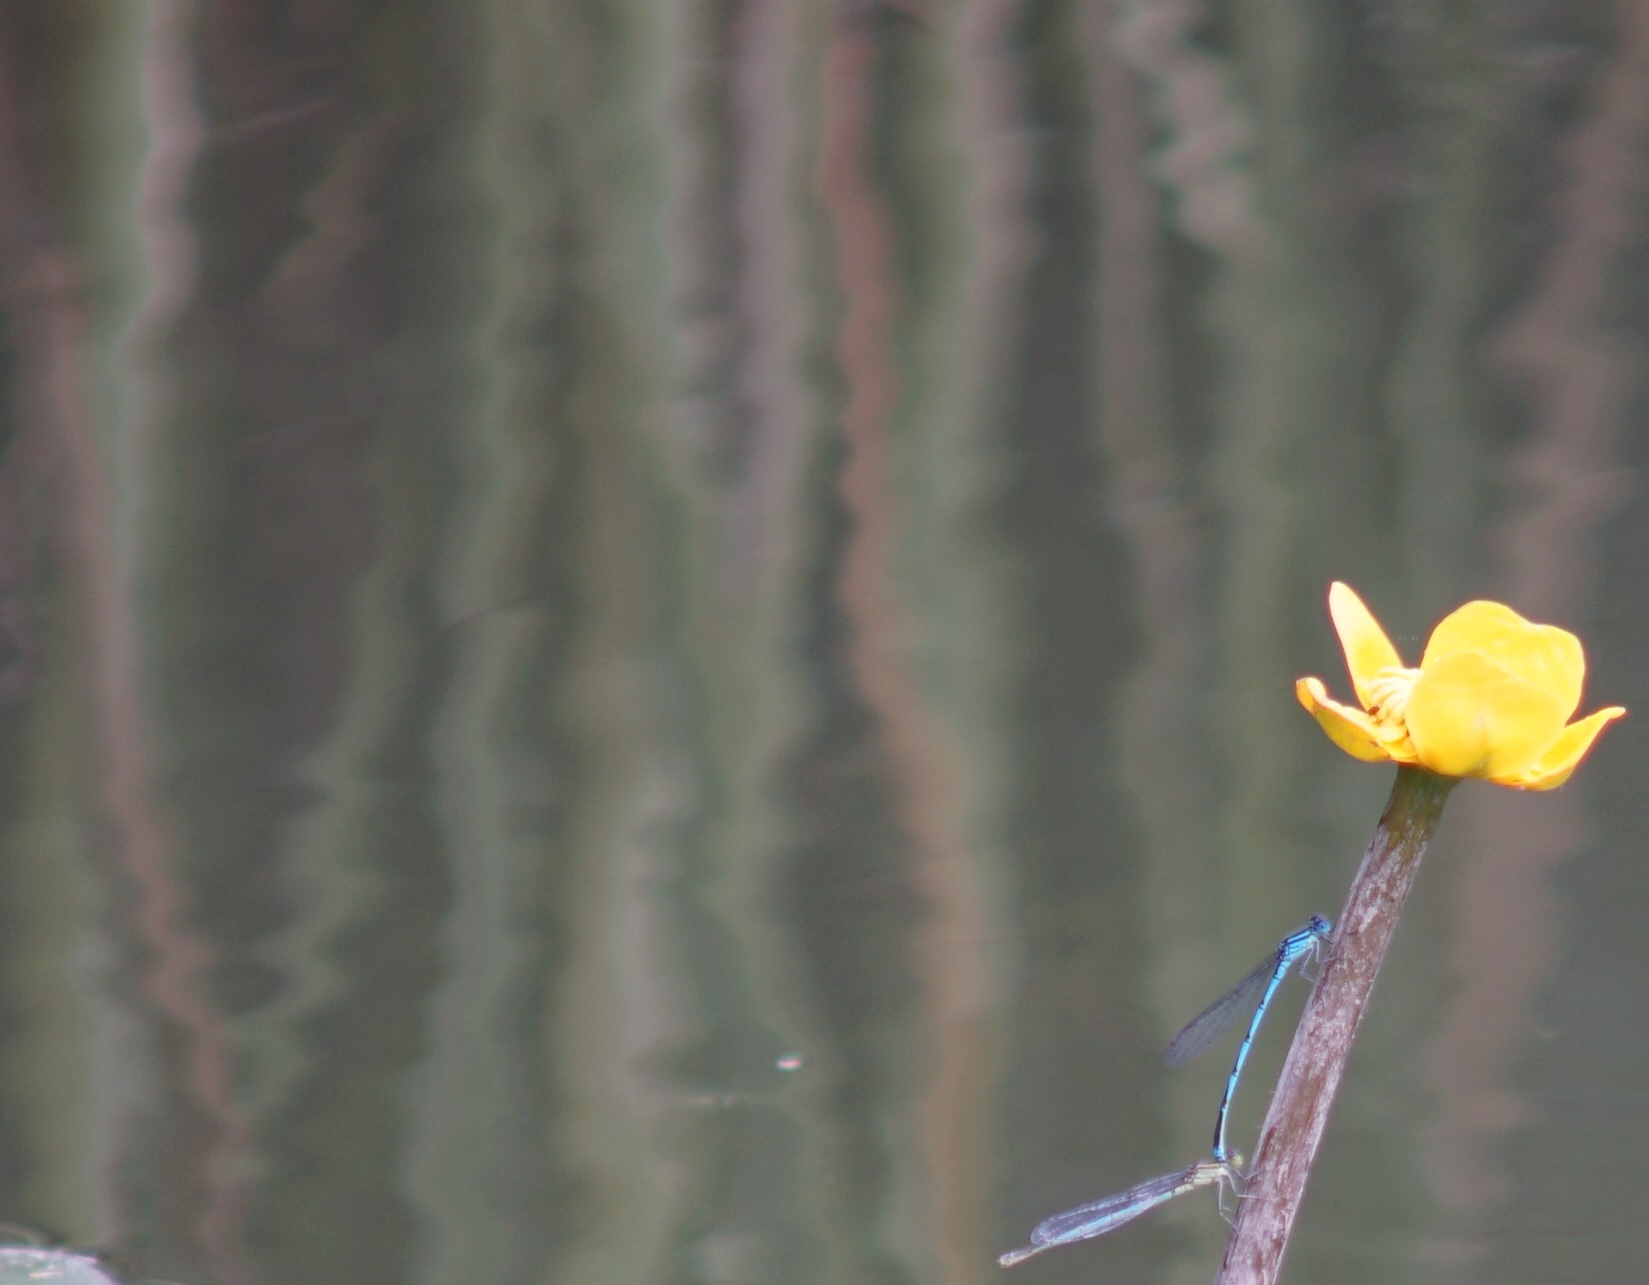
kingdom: Animalia
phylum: Arthropoda
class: Insecta
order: Odonata
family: Coenagrionidae
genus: Erythromma
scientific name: Erythromma lindenii
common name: Blue-eye
